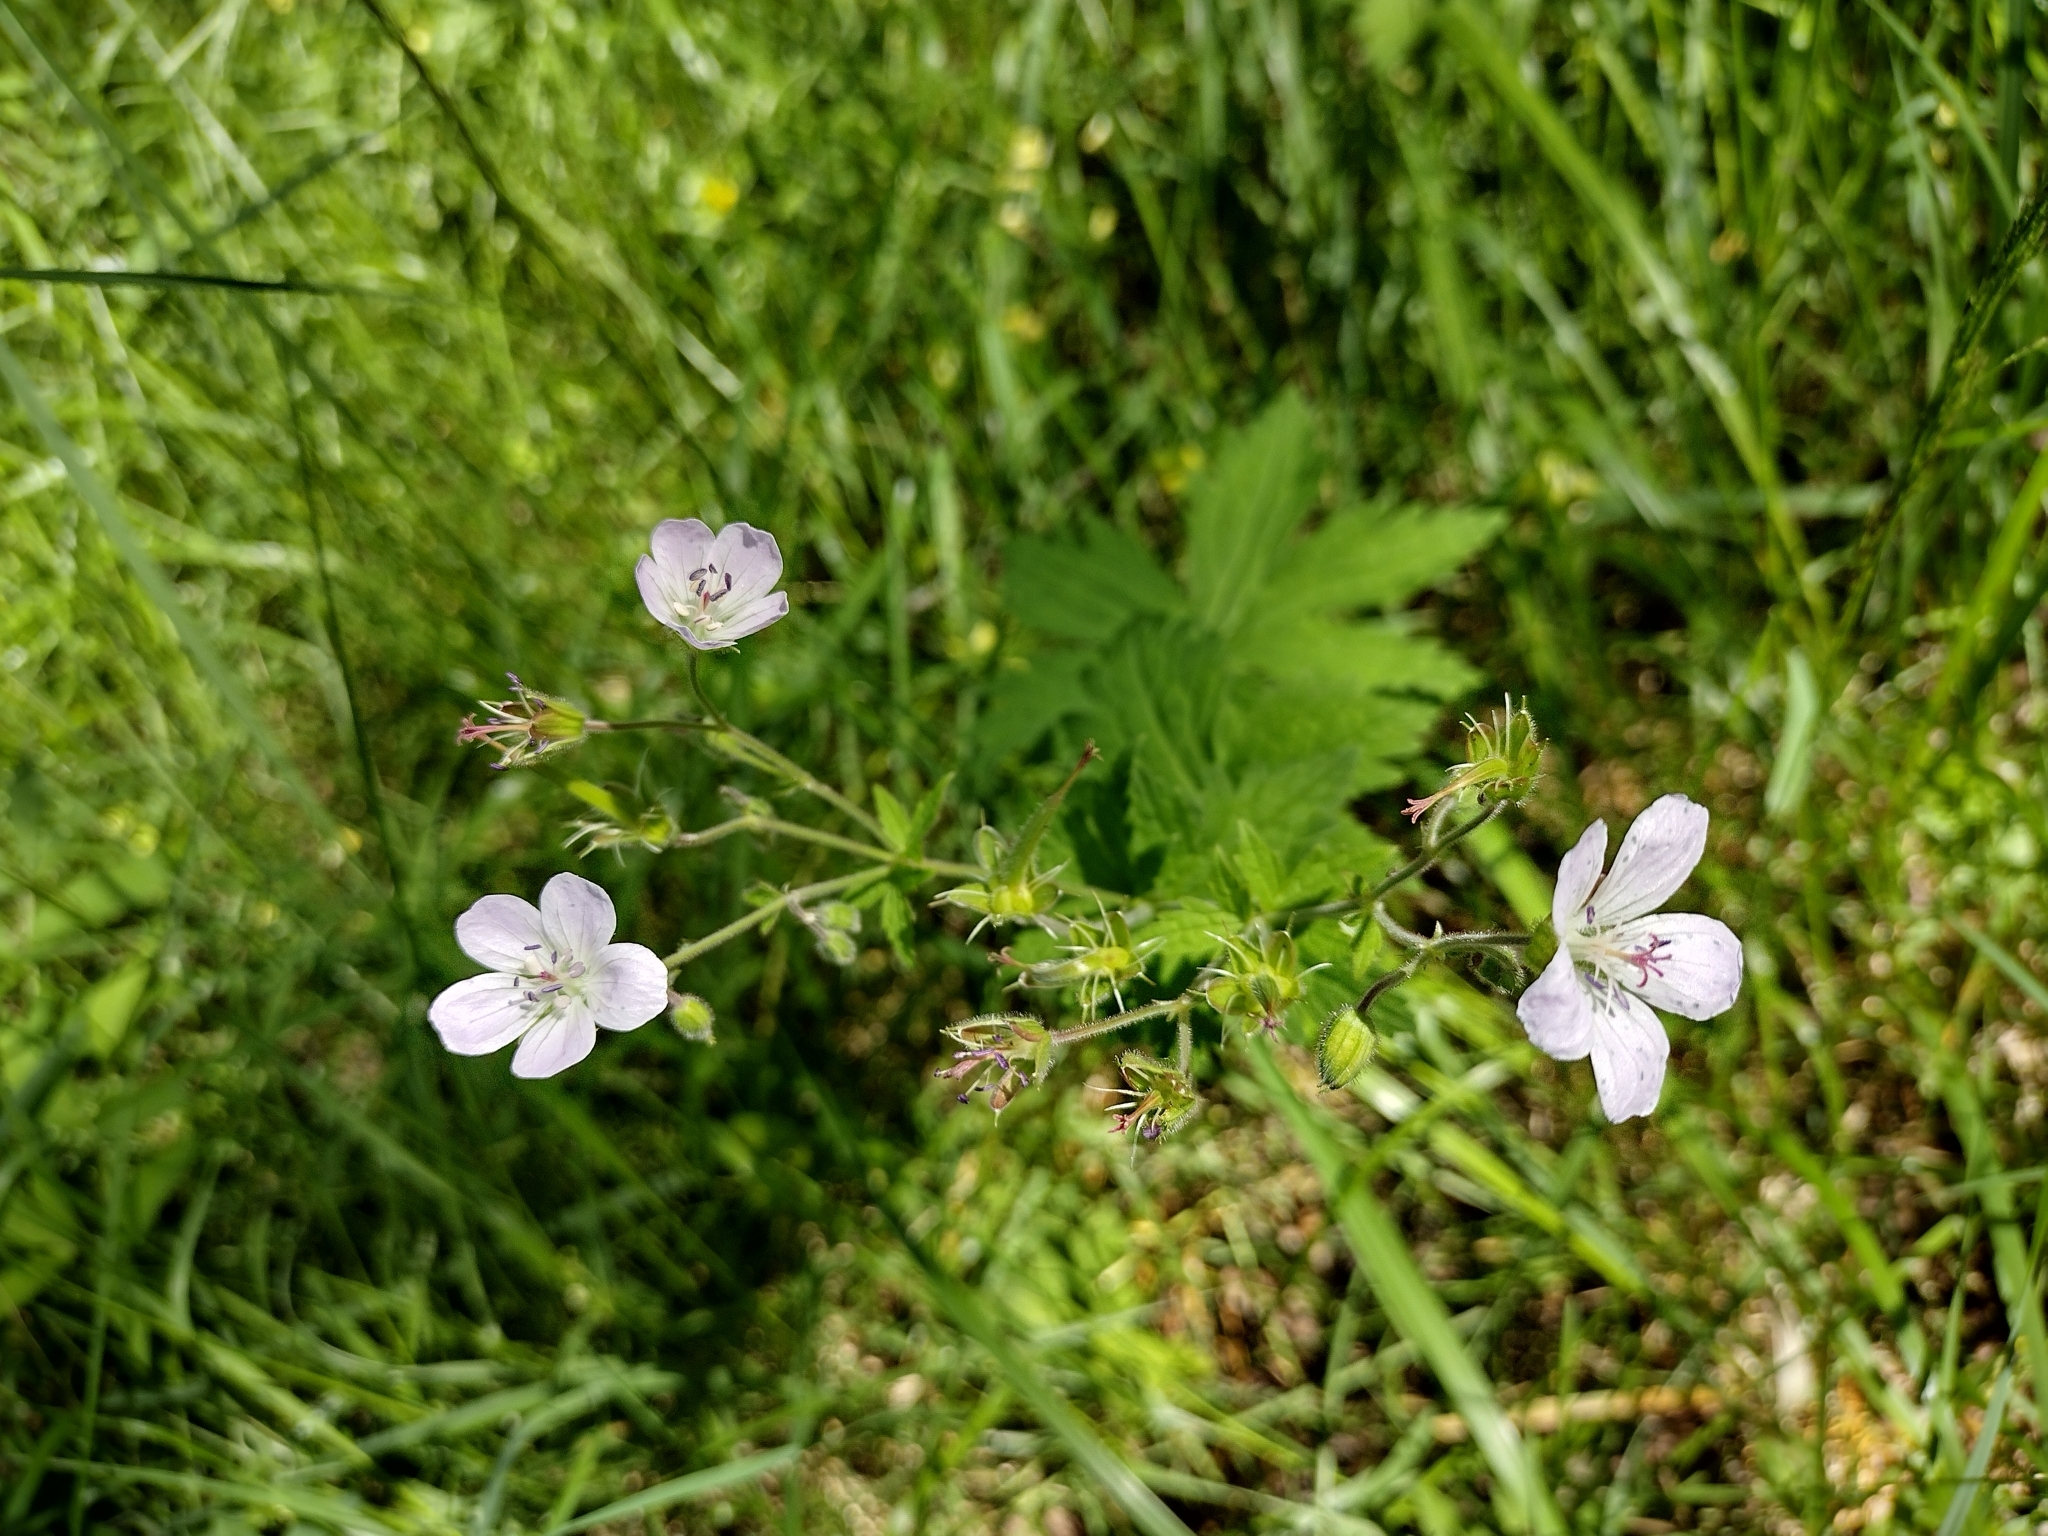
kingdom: Plantae
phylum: Tracheophyta
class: Magnoliopsida
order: Geraniales
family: Geraniaceae
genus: Geranium
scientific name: Geranium sylvaticum
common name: Wood crane's-bill
